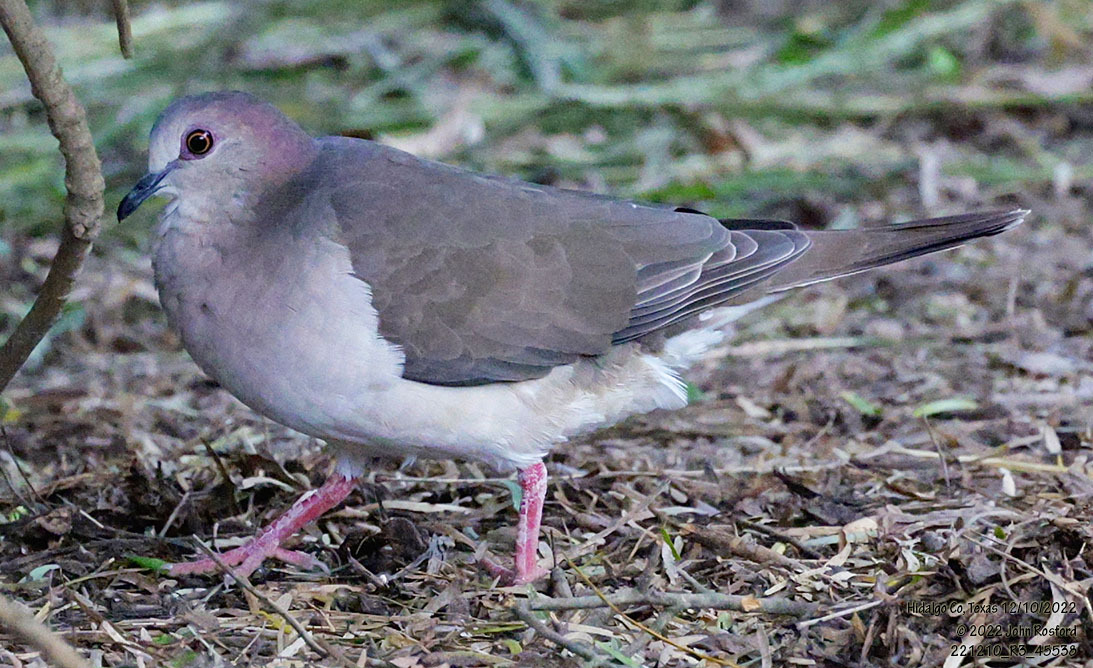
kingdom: Animalia
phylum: Chordata
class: Aves
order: Columbiformes
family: Columbidae
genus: Leptotila
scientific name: Leptotila verreauxi
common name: White-tipped dove
